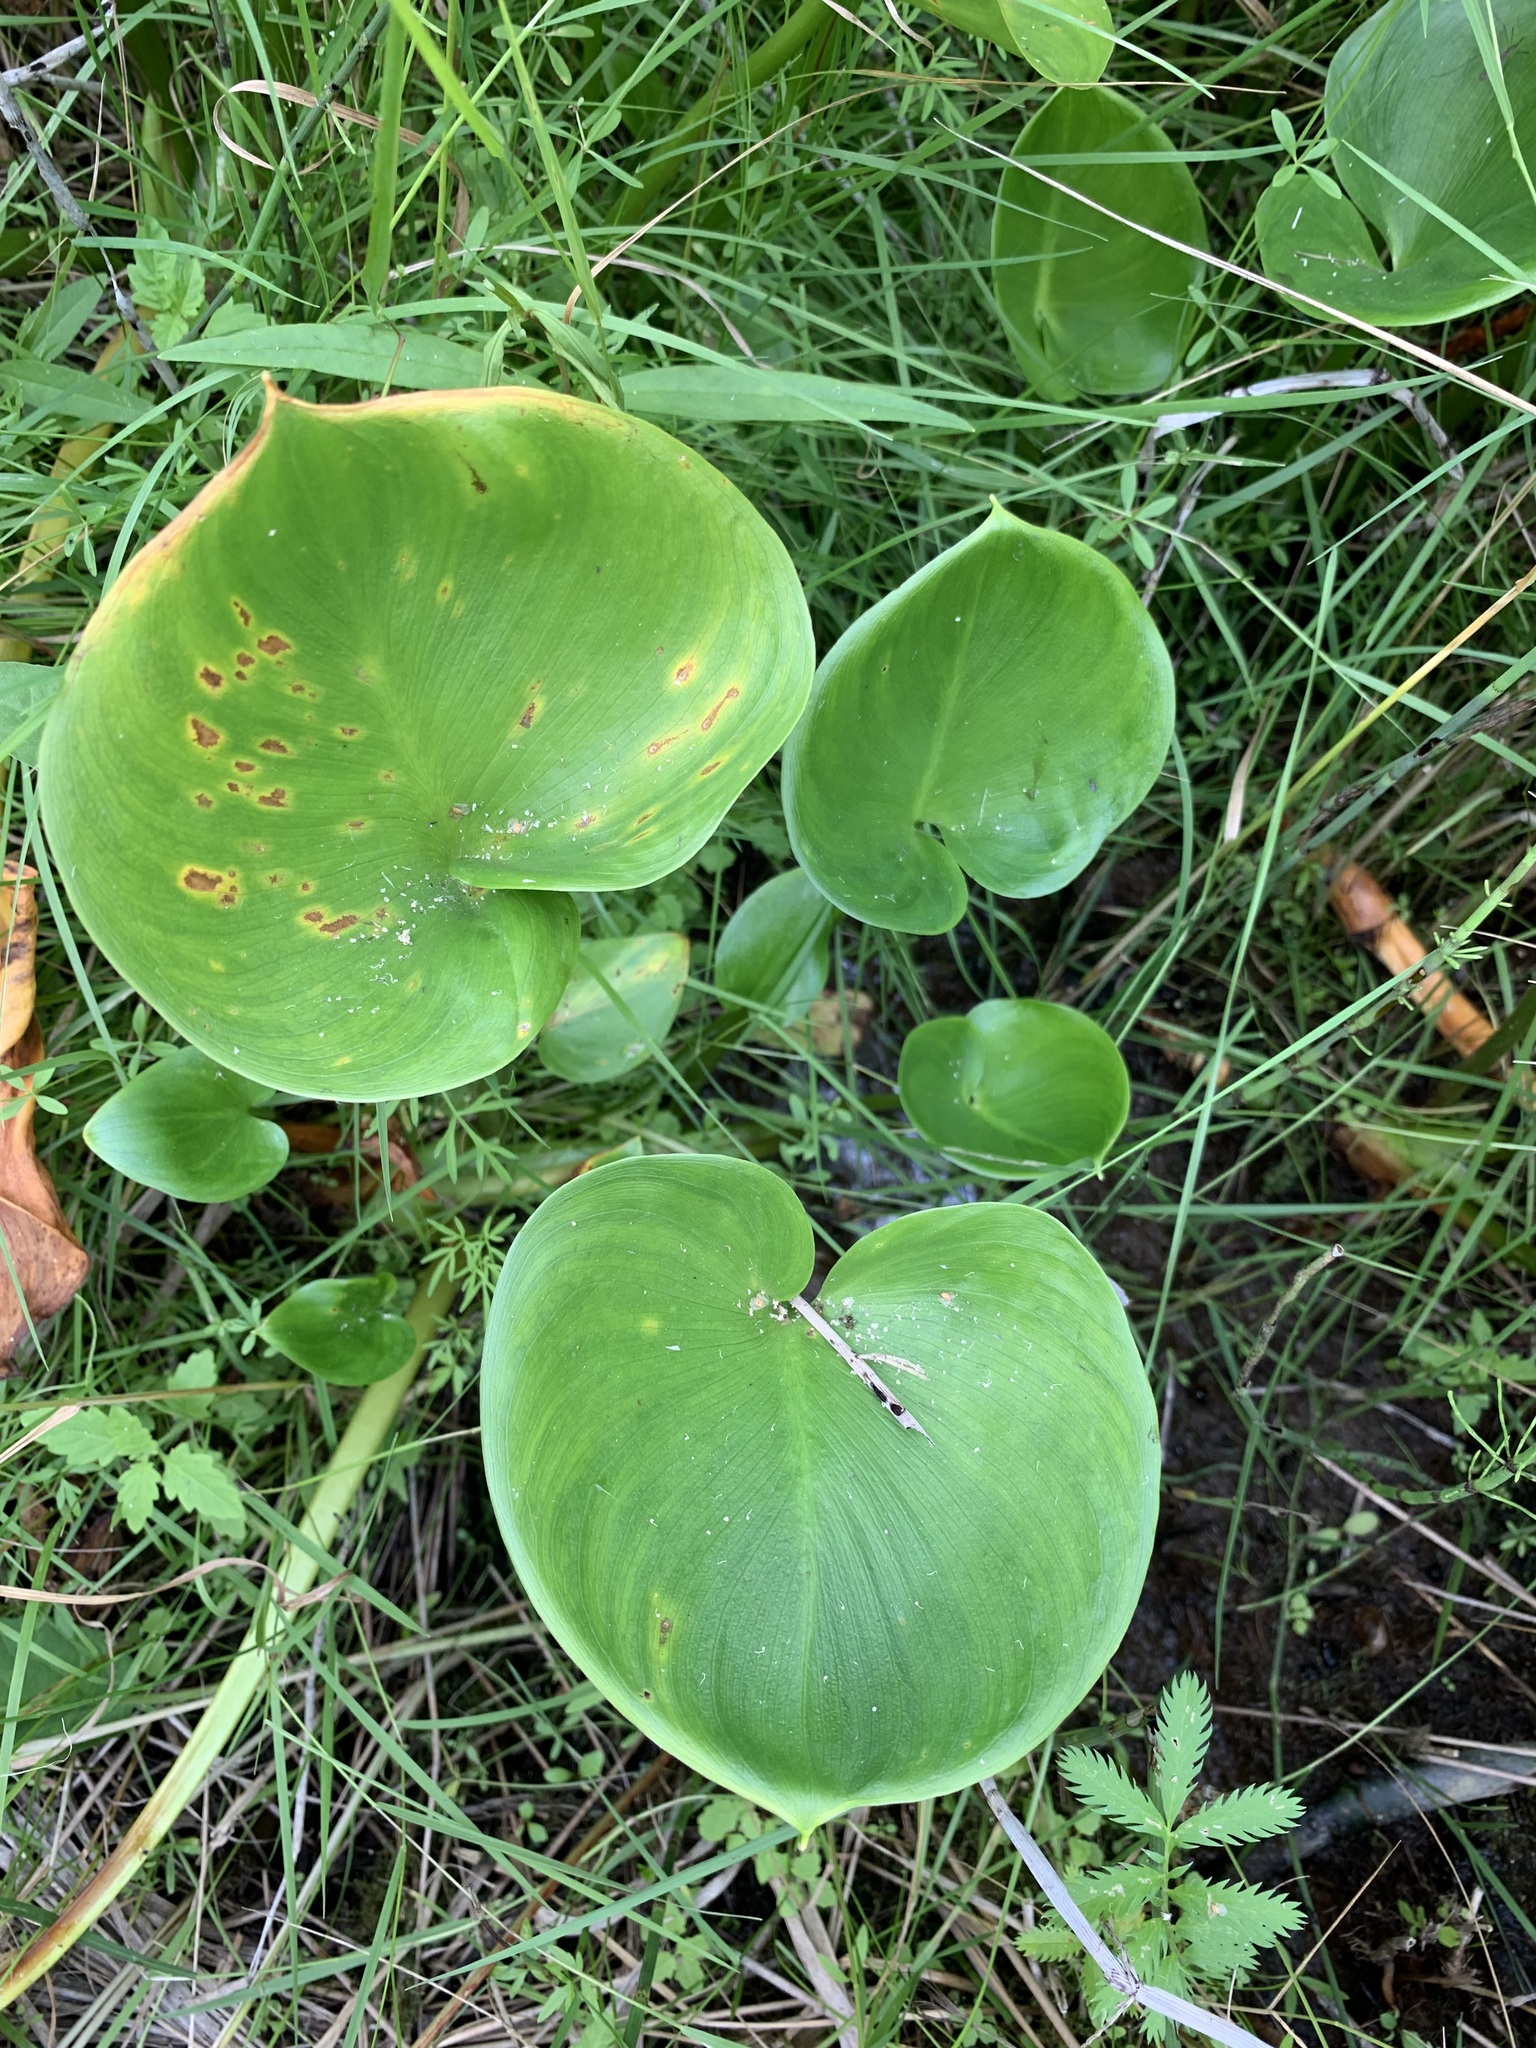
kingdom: Plantae
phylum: Tracheophyta
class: Liliopsida
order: Alismatales
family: Araceae
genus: Calla
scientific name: Calla palustris
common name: Bog arum
